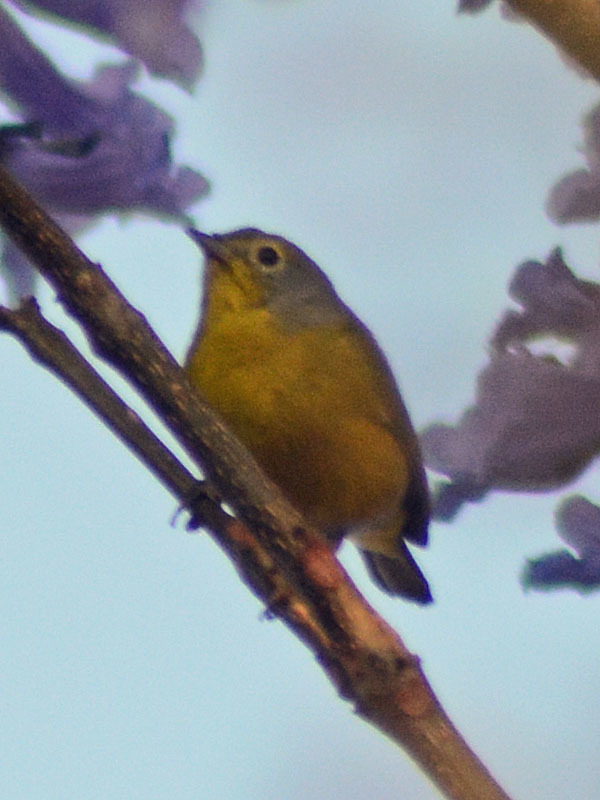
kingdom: Animalia
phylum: Chordata
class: Aves
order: Passeriformes
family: Parulidae
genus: Leiothlypis
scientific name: Leiothlypis ruficapilla
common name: Nashville warbler
